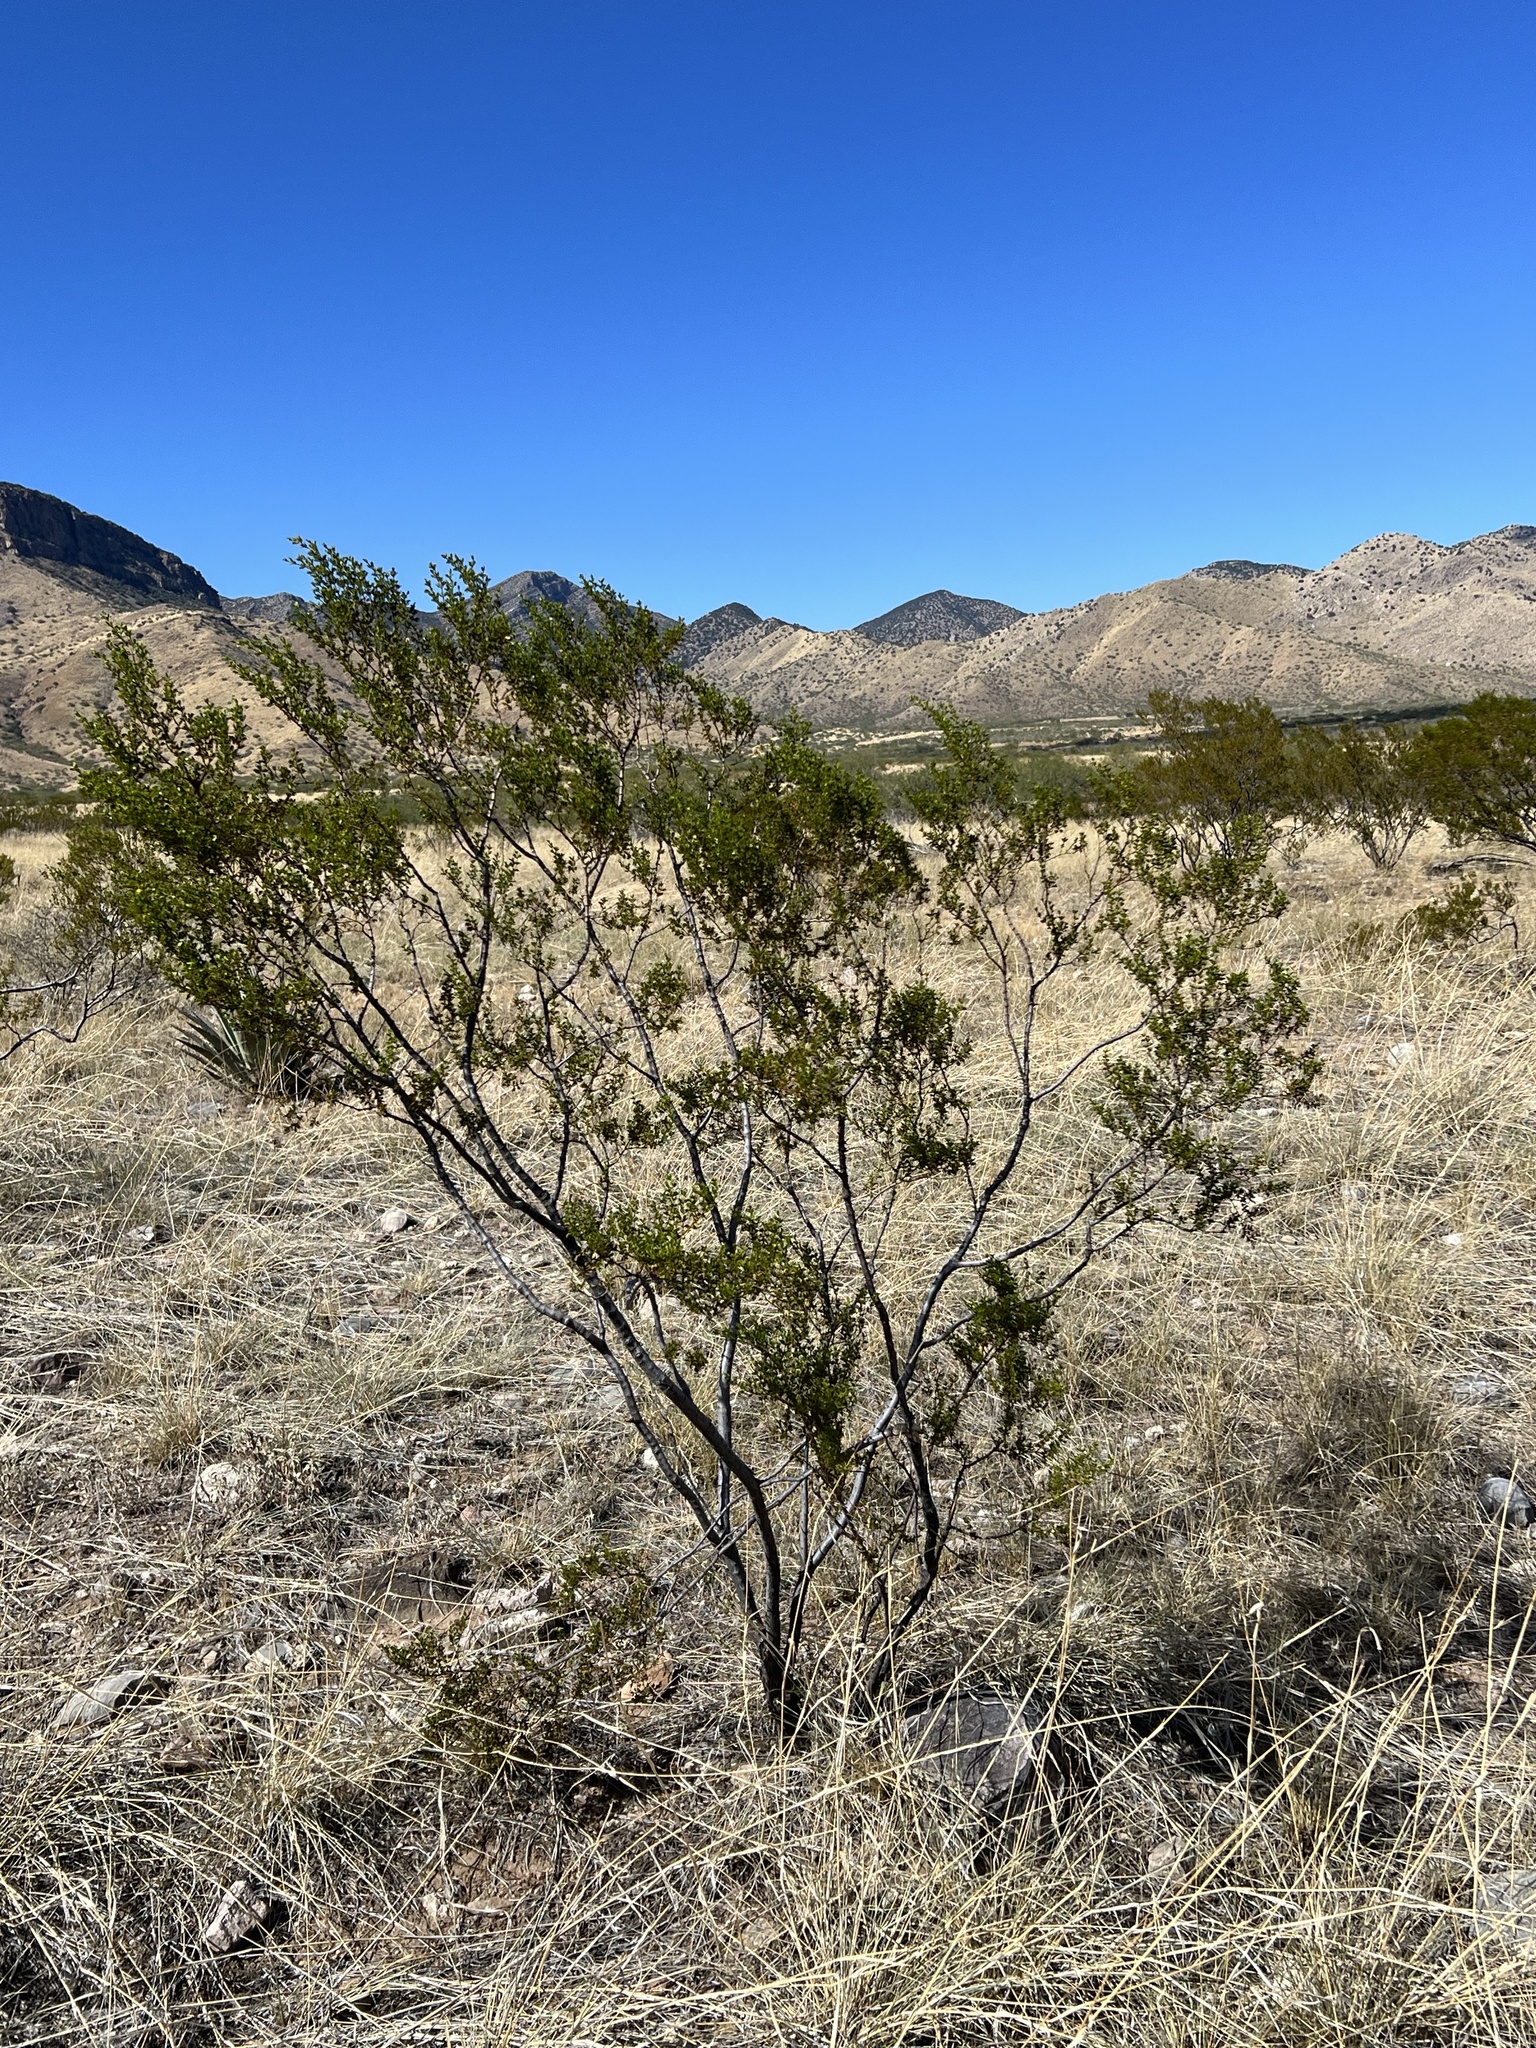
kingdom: Plantae
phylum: Tracheophyta
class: Magnoliopsida
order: Zygophyllales
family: Zygophyllaceae
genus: Larrea
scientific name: Larrea tridentata
